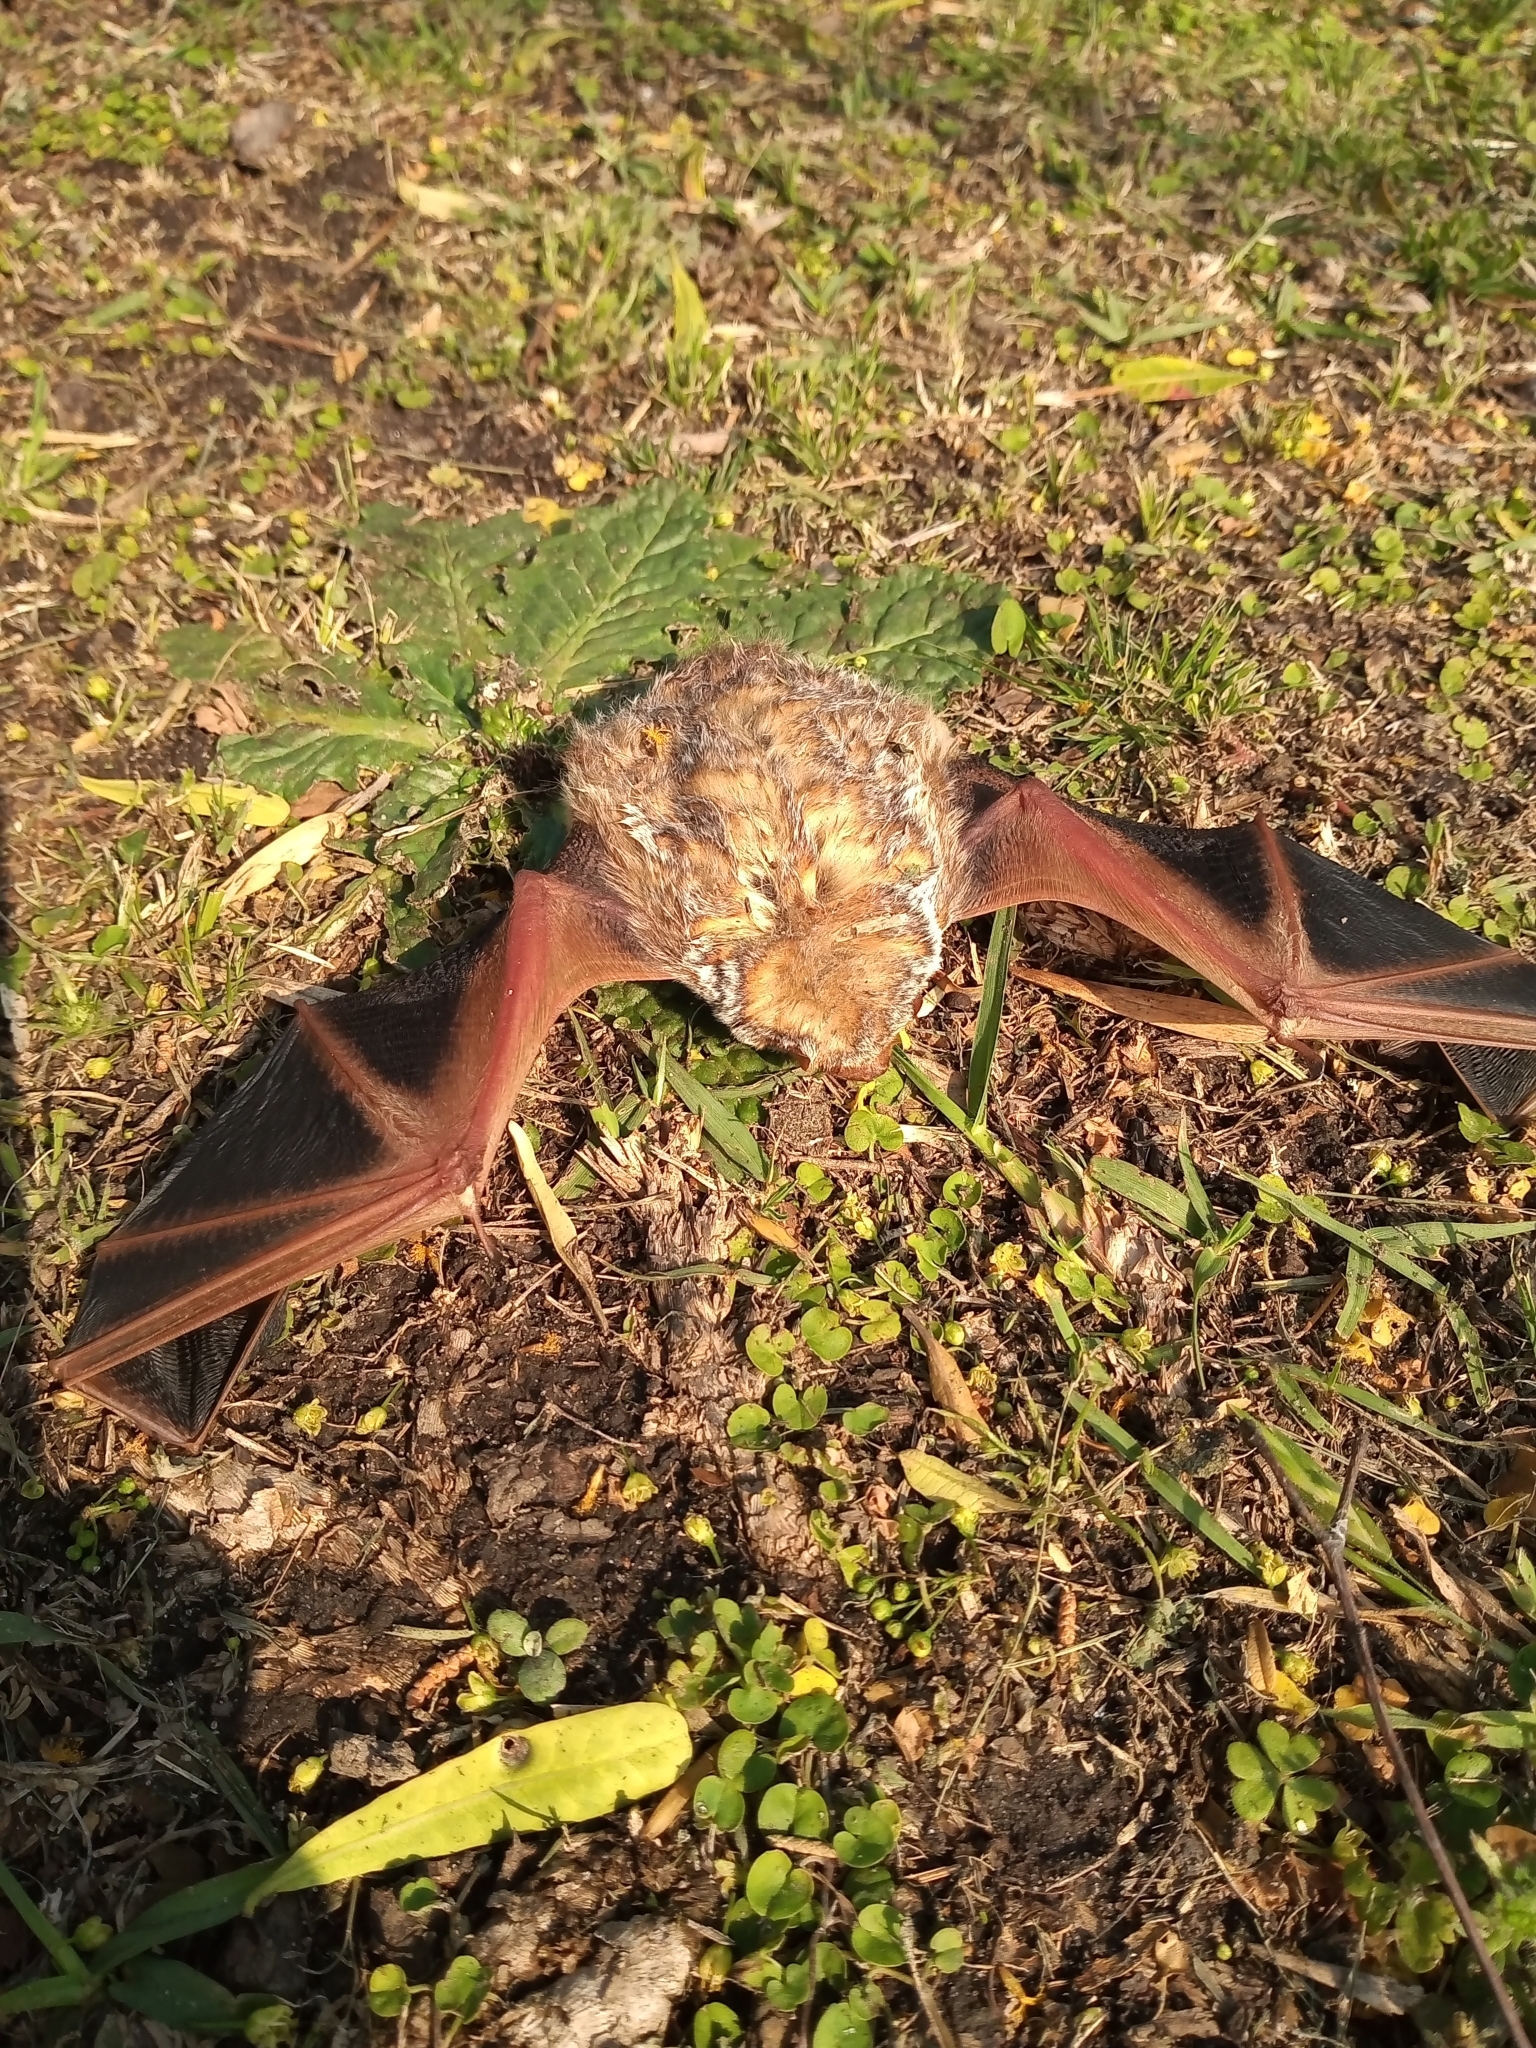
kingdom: Animalia
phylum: Chordata
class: Mammalia
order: Chiroptera
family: Vespertilionidae
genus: Lasiurus
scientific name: Lasiurus blossevillii
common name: Southern red bat
